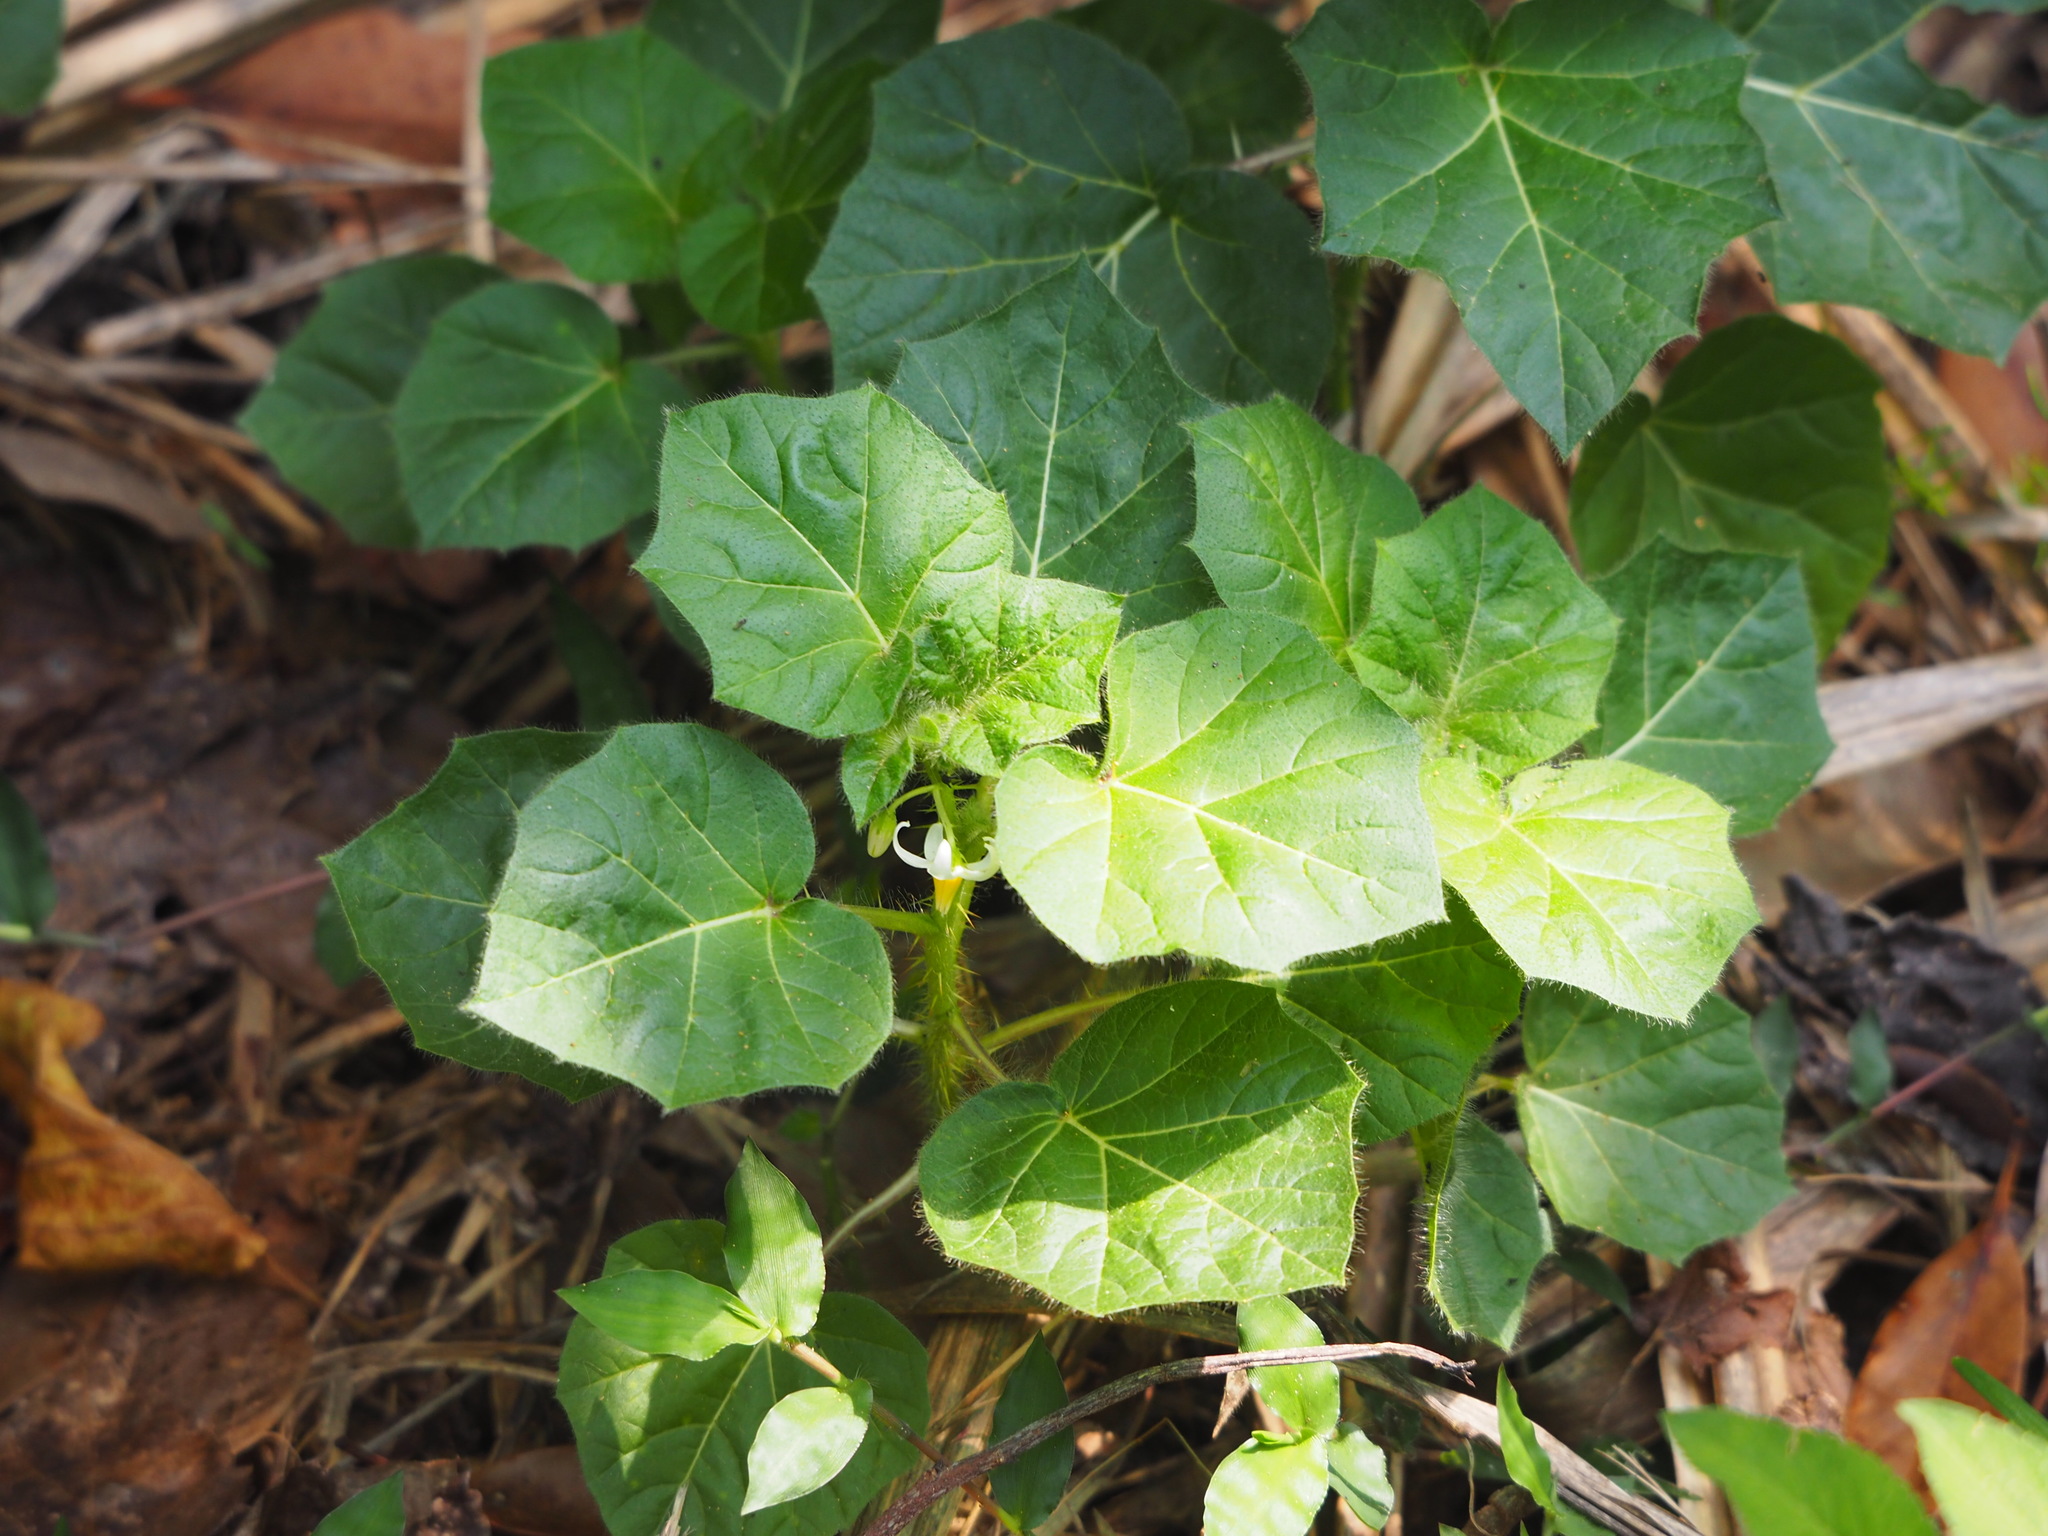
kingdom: Plantae
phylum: Tracheophyta
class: Magnoliopsida
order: Solanales
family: Solanaceae
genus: Solanum
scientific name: Solanum capsicoides
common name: Cockroach berry
